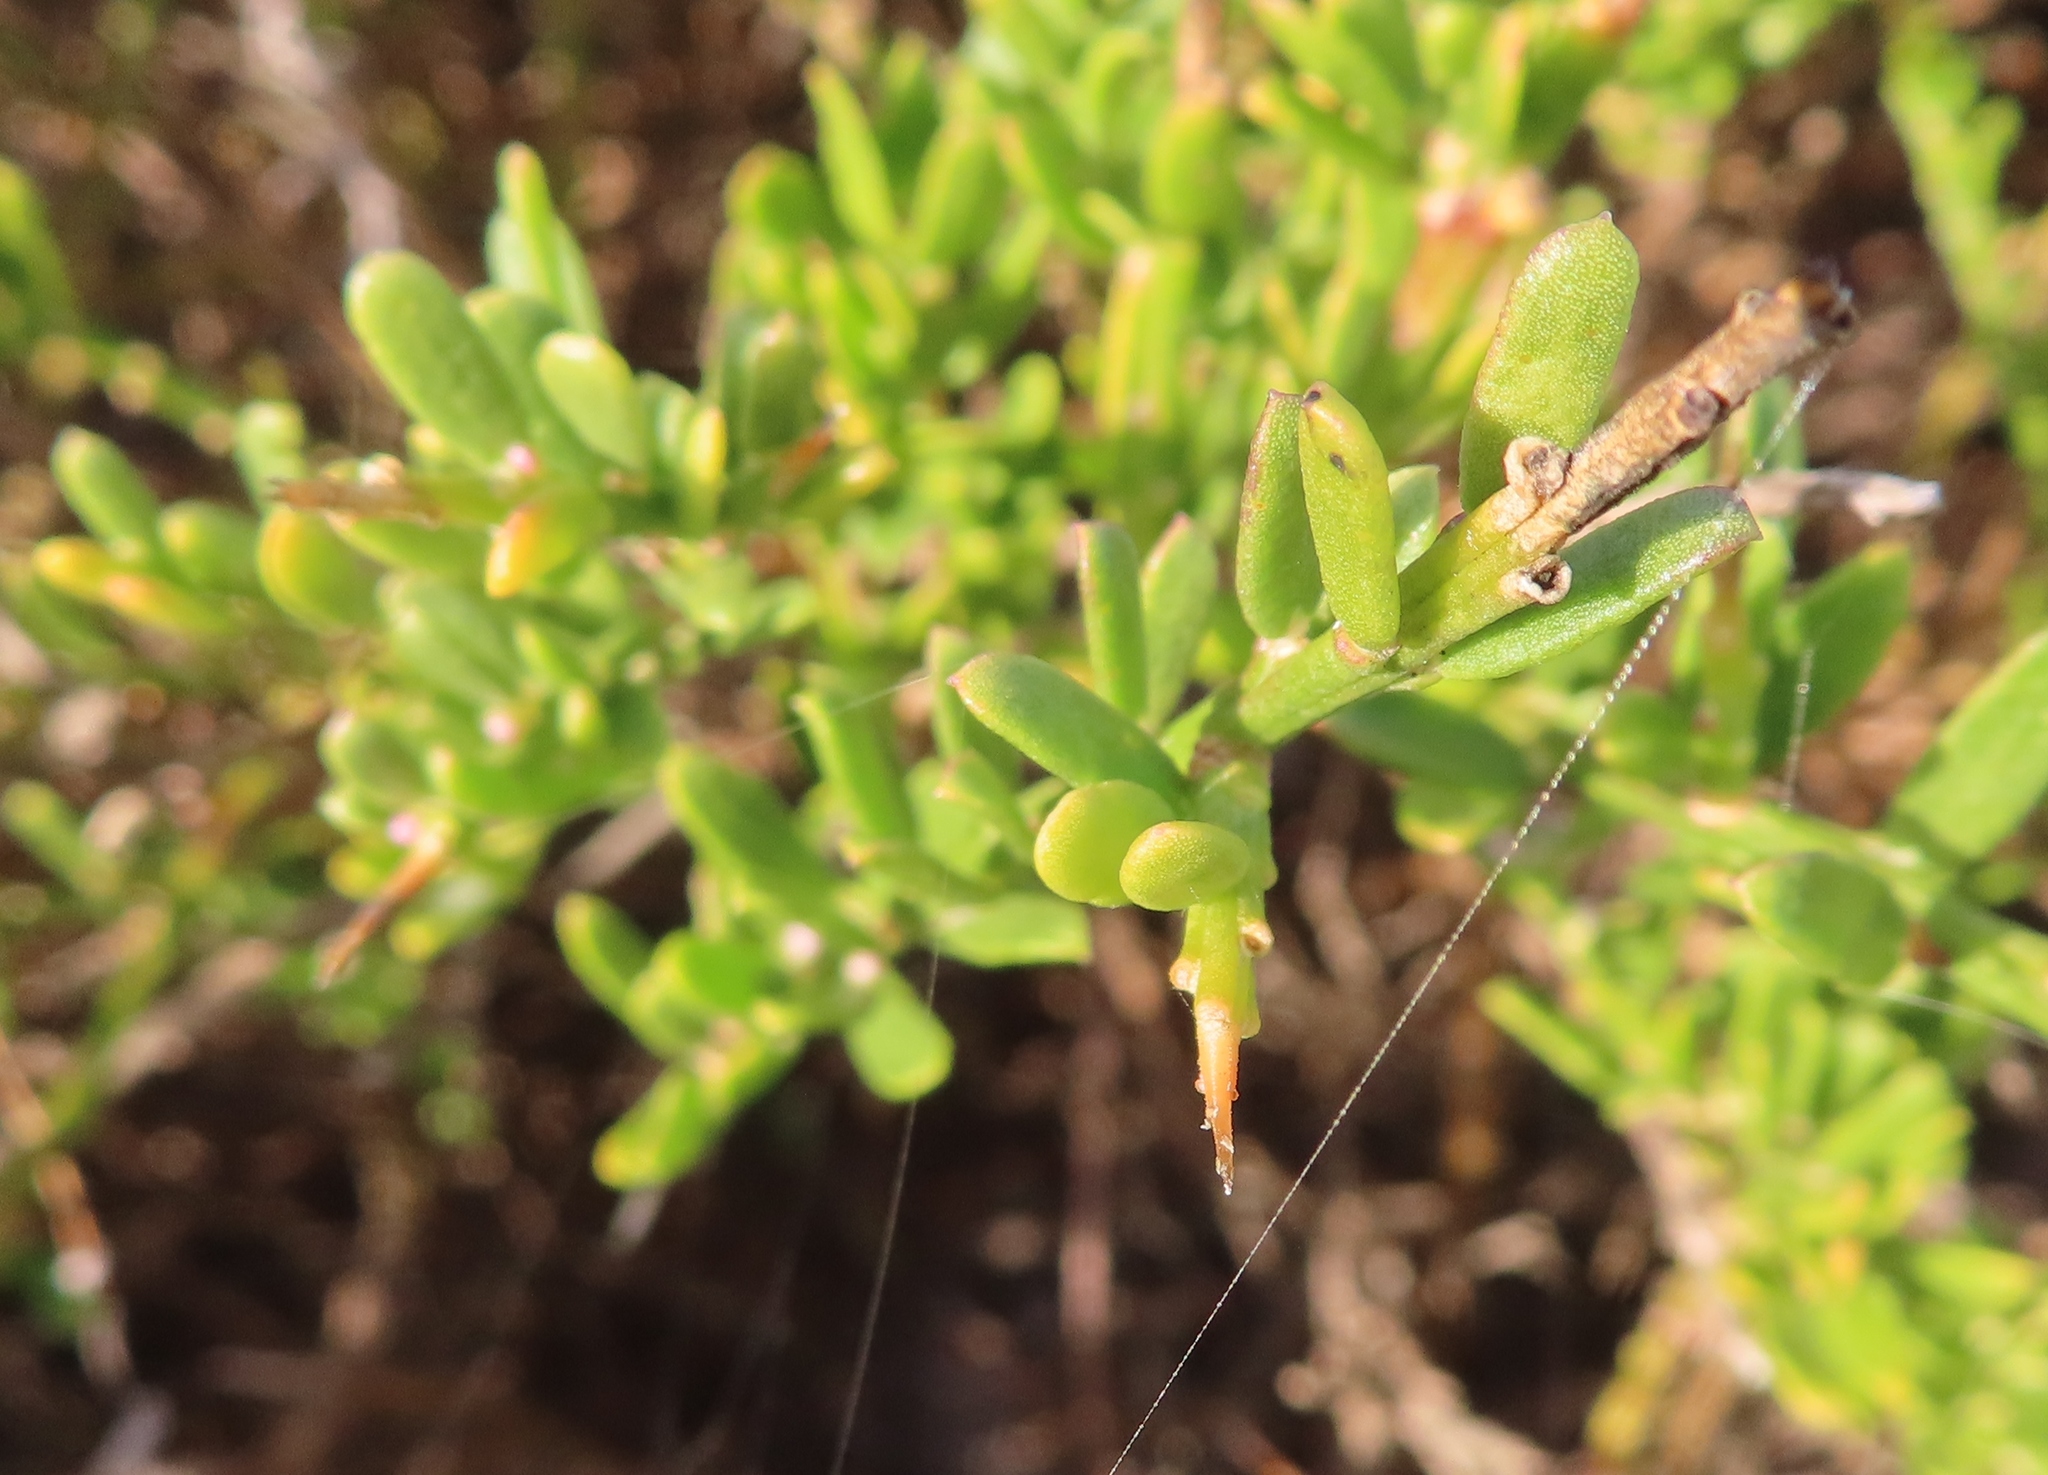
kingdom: Plantae
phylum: Tracheophyta
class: Magnoliopsida
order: Fabales
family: Polygalaceae
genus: Muraltia
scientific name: Muraltia spinosa
